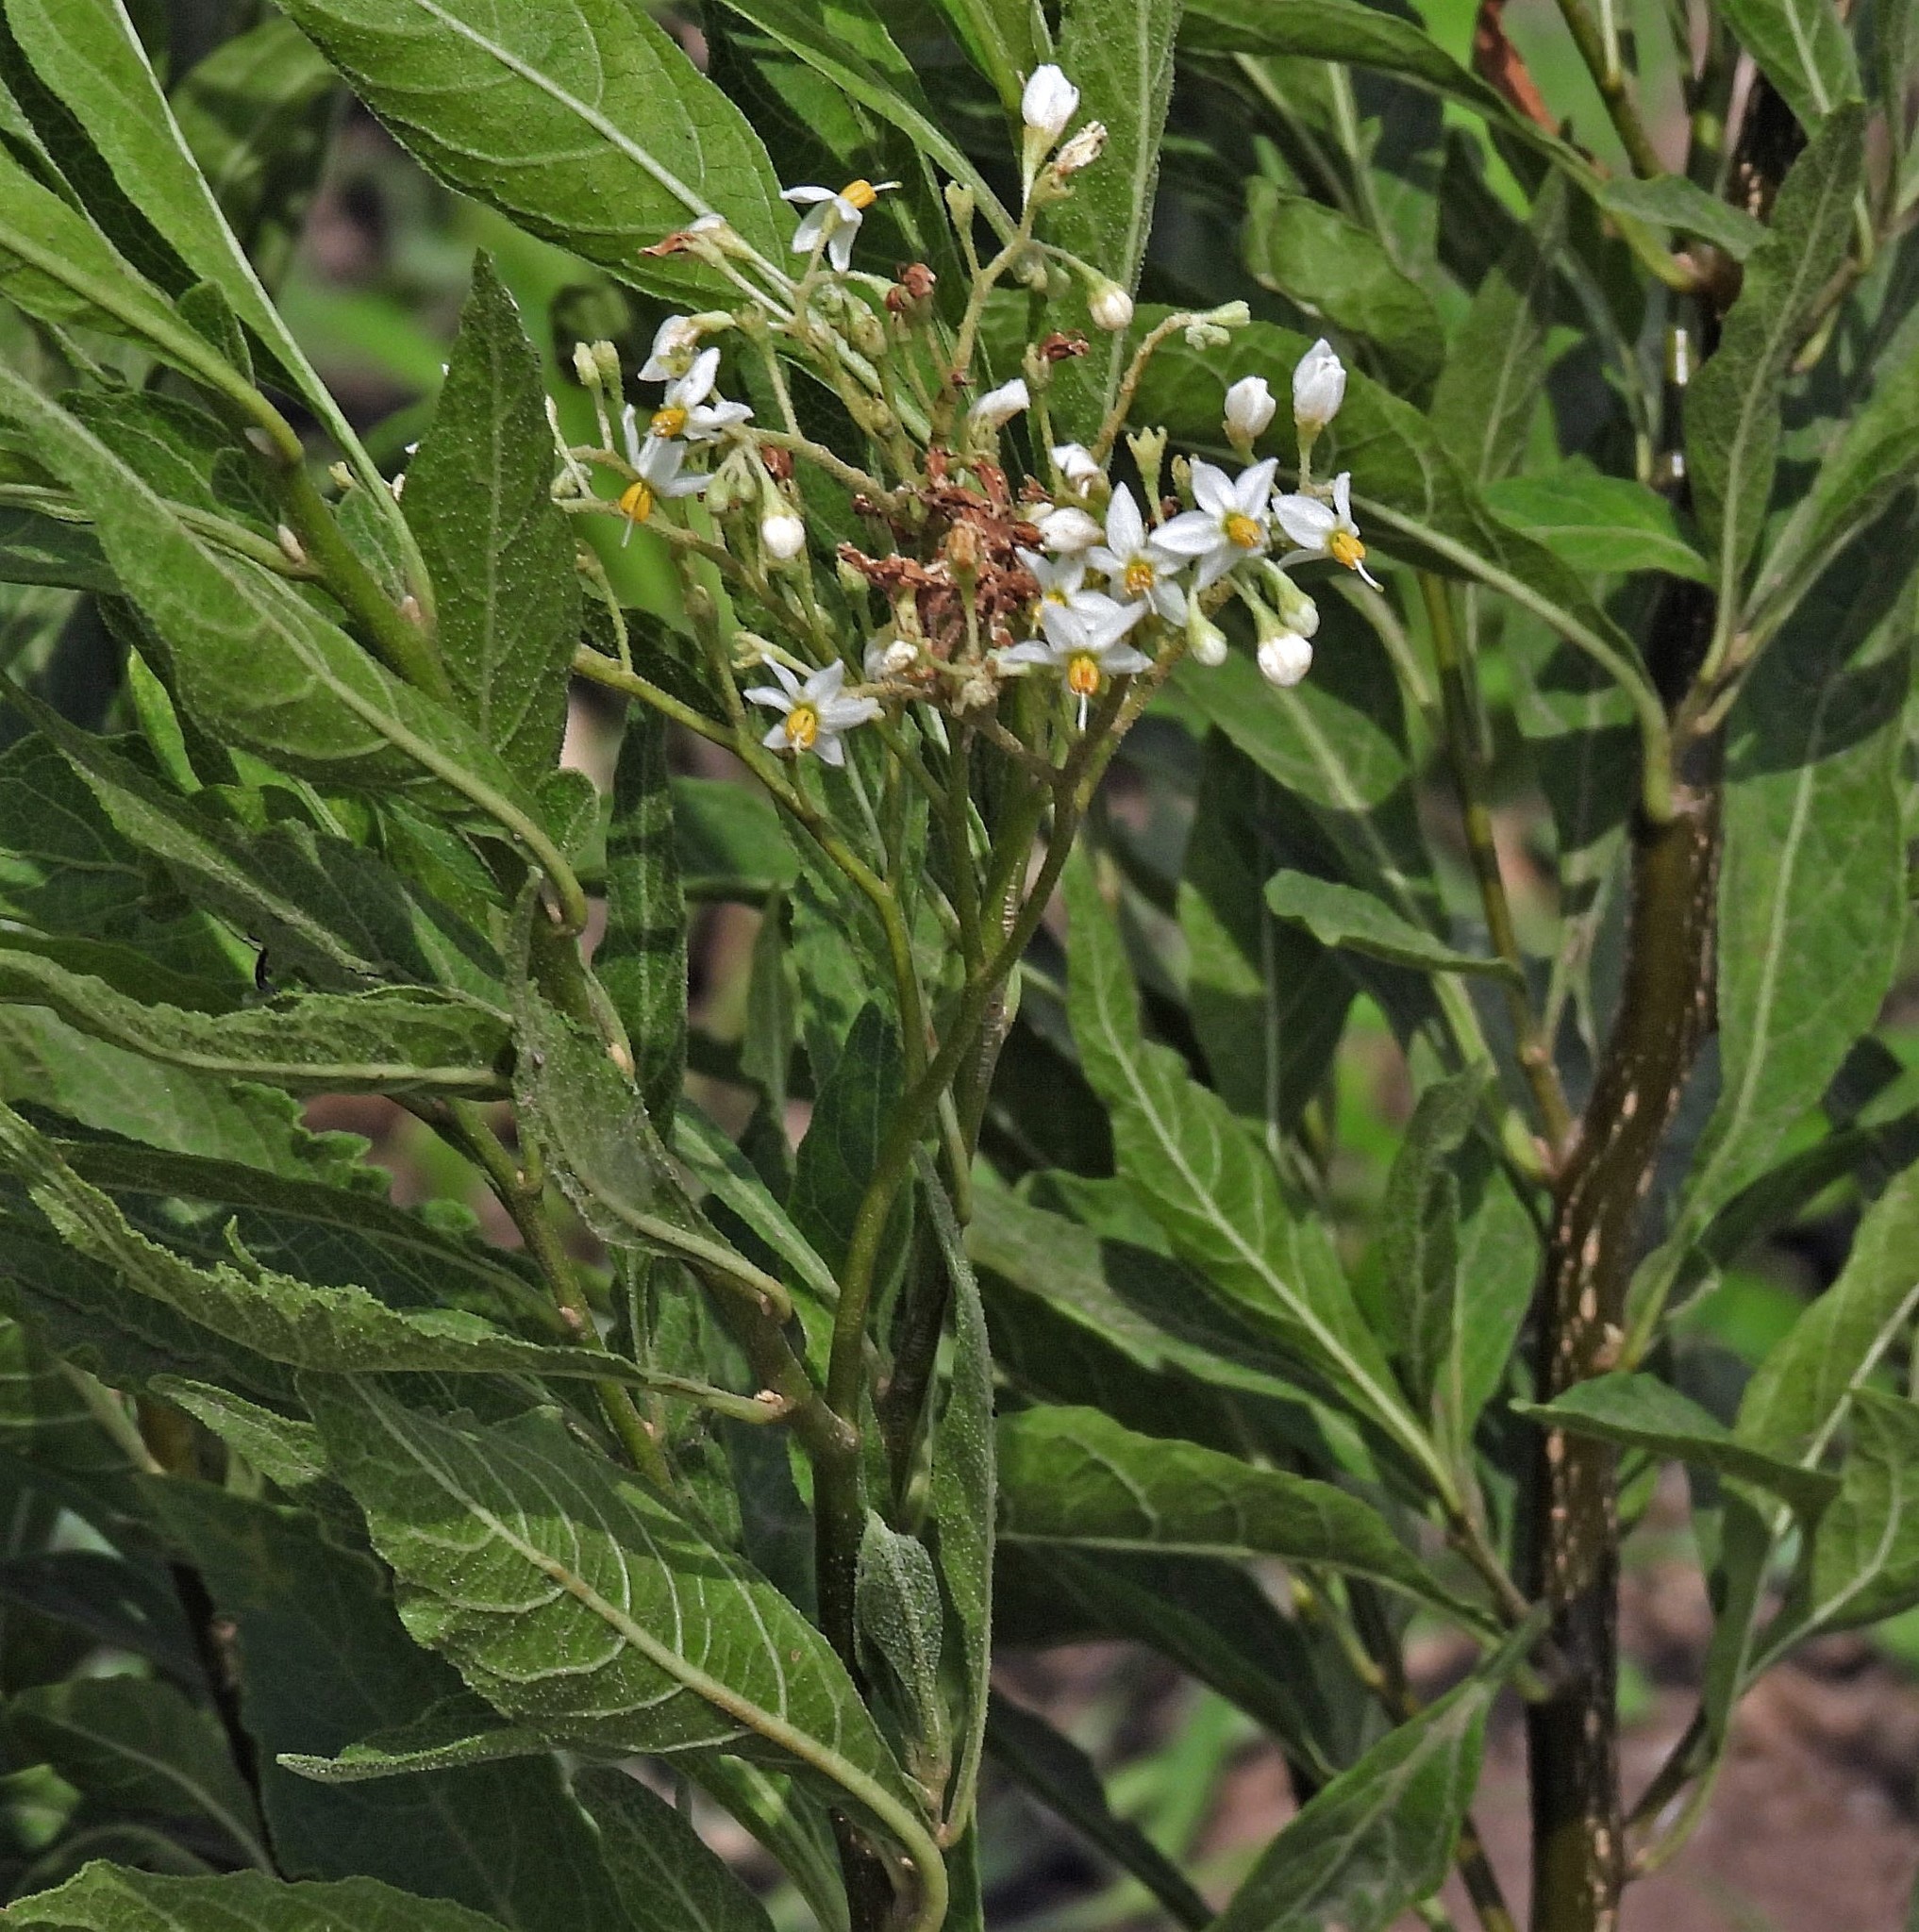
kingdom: Plantae
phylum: Tracheophyta
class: Magnoliopsida
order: Solanales
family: Solanaceae
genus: Solanum
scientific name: Solanum argentinum
